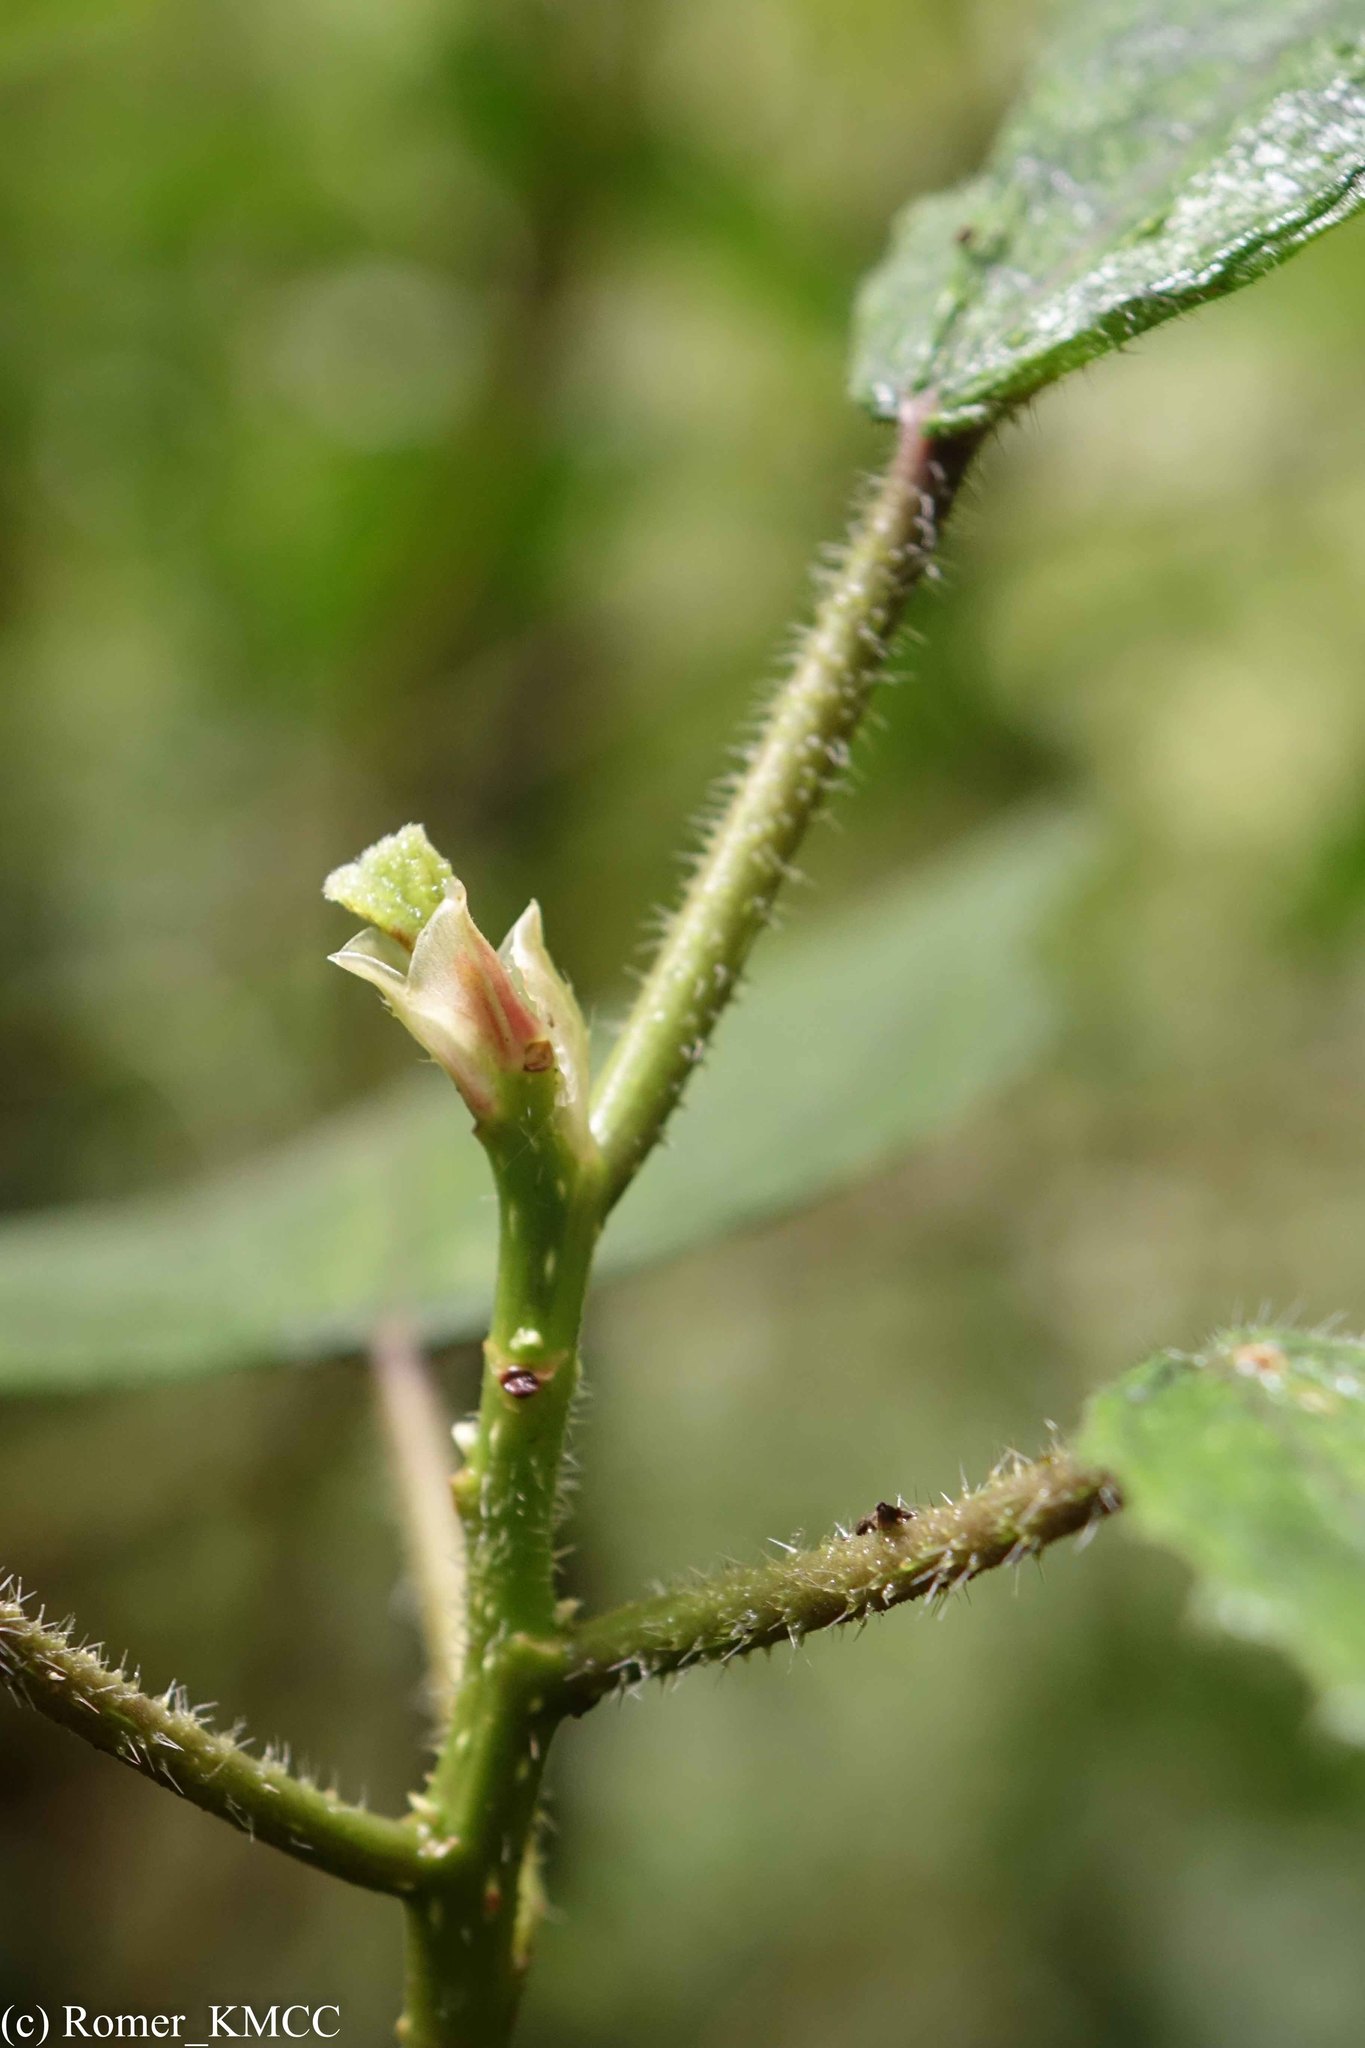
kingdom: Plantae
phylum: Tracheophyta
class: Magnoliopsida
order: Rosales
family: Urticaceae
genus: Laportea
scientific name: Laportea oligoloba
